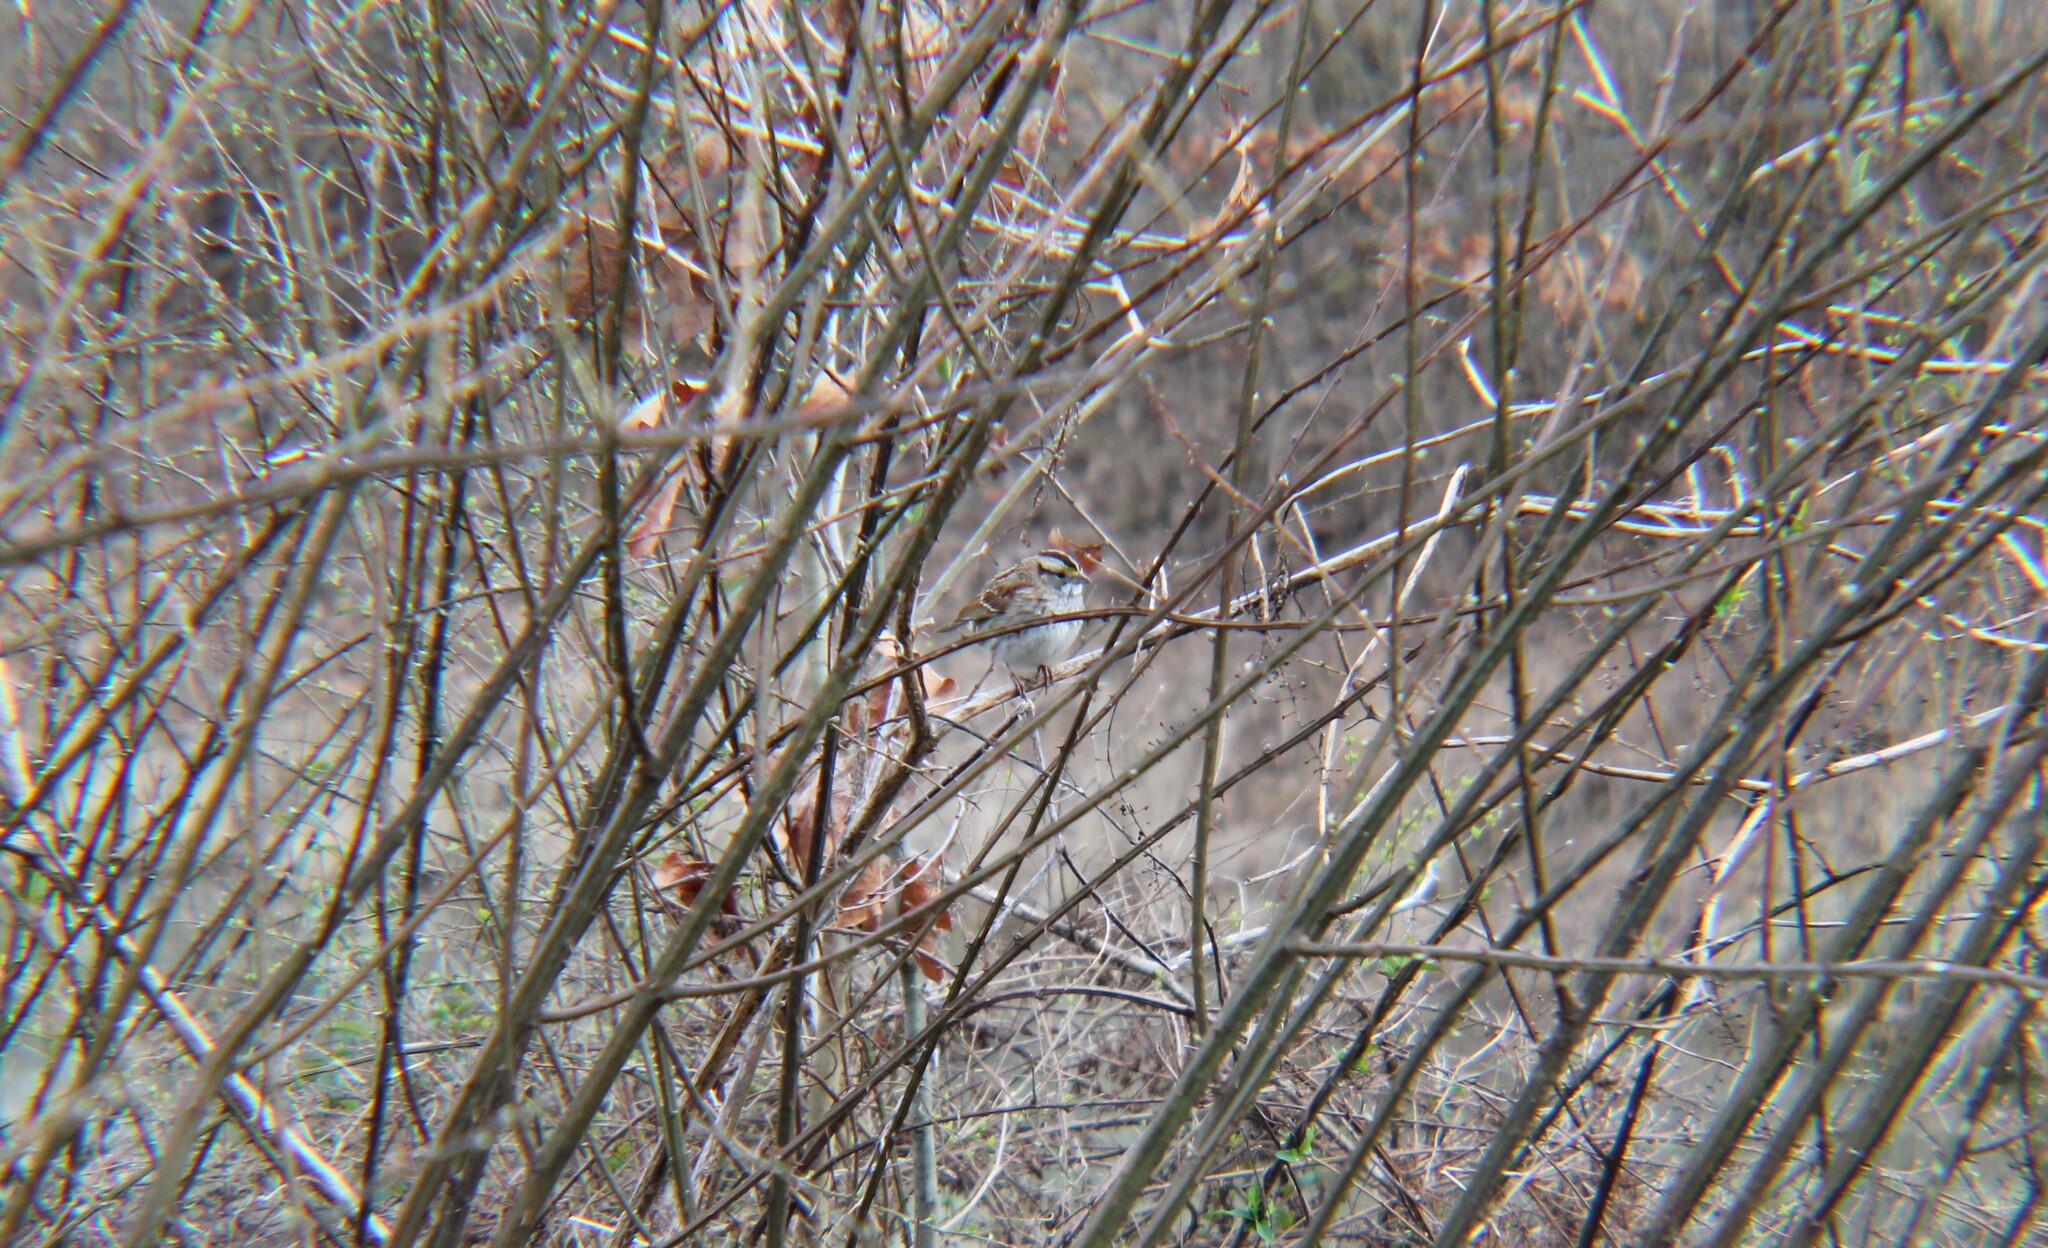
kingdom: Animalia
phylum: Chordata
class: Aves
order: Passeriformes
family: Passerellidae
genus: Zonotrichia
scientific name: Zonotrichia albicollis
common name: White-throated sparrow
